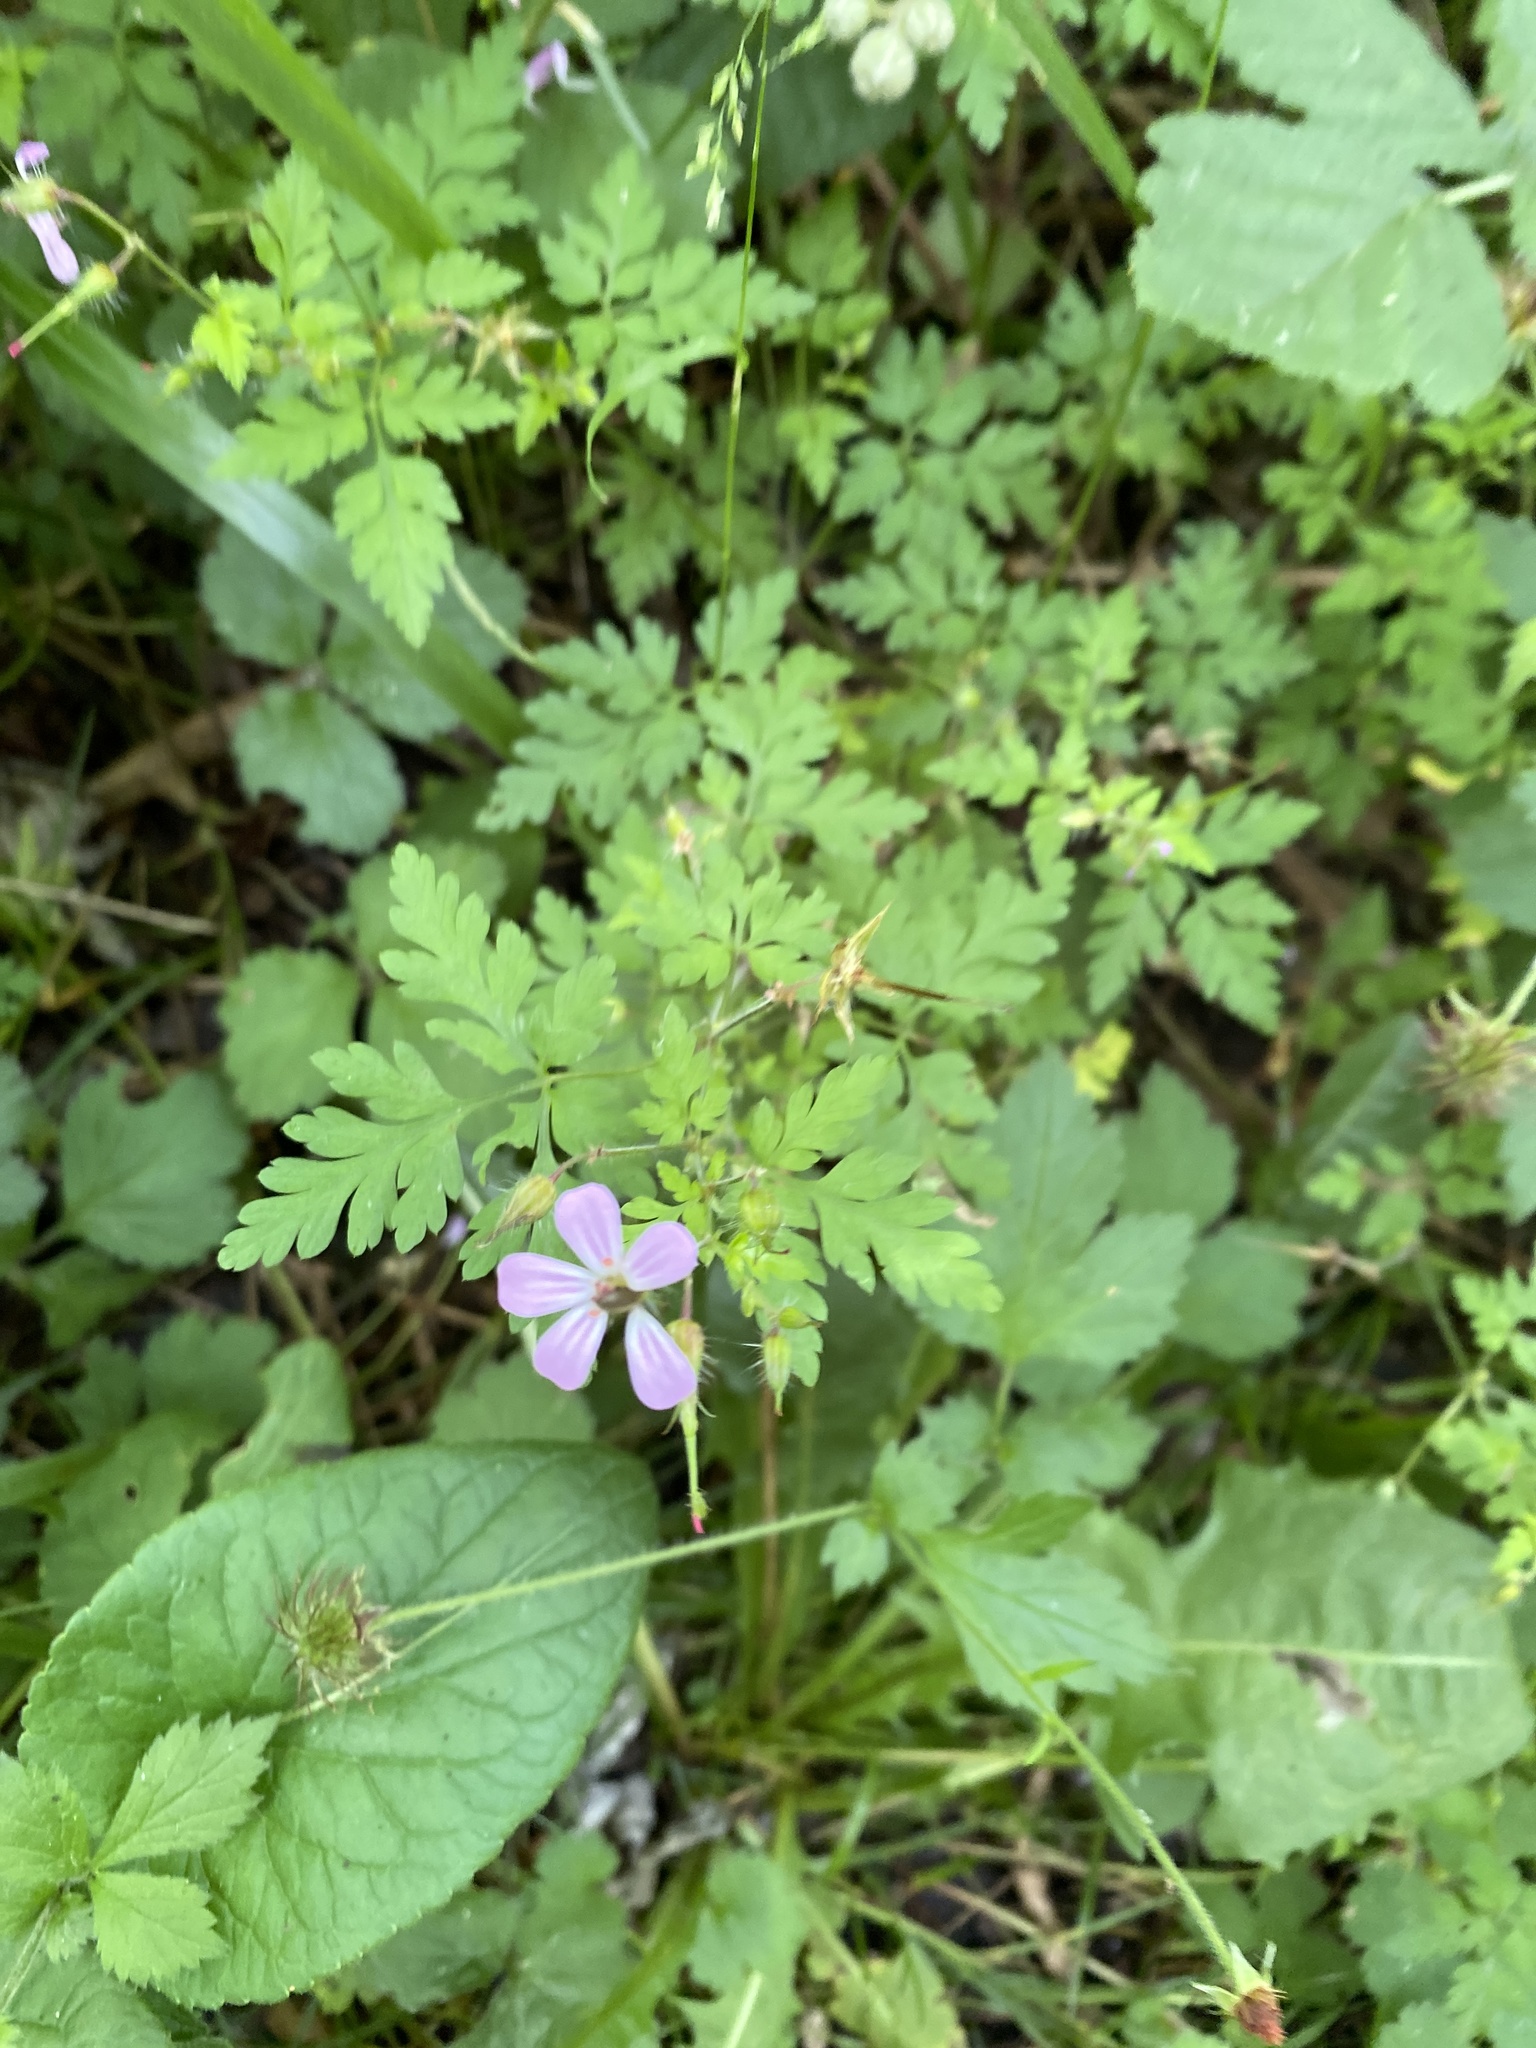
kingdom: Plantae
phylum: Tracheophyta
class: Magnoliopsida
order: Geraniales
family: Geraniaceae
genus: Geranium
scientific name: Geranium robertianum
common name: Herb-robert
